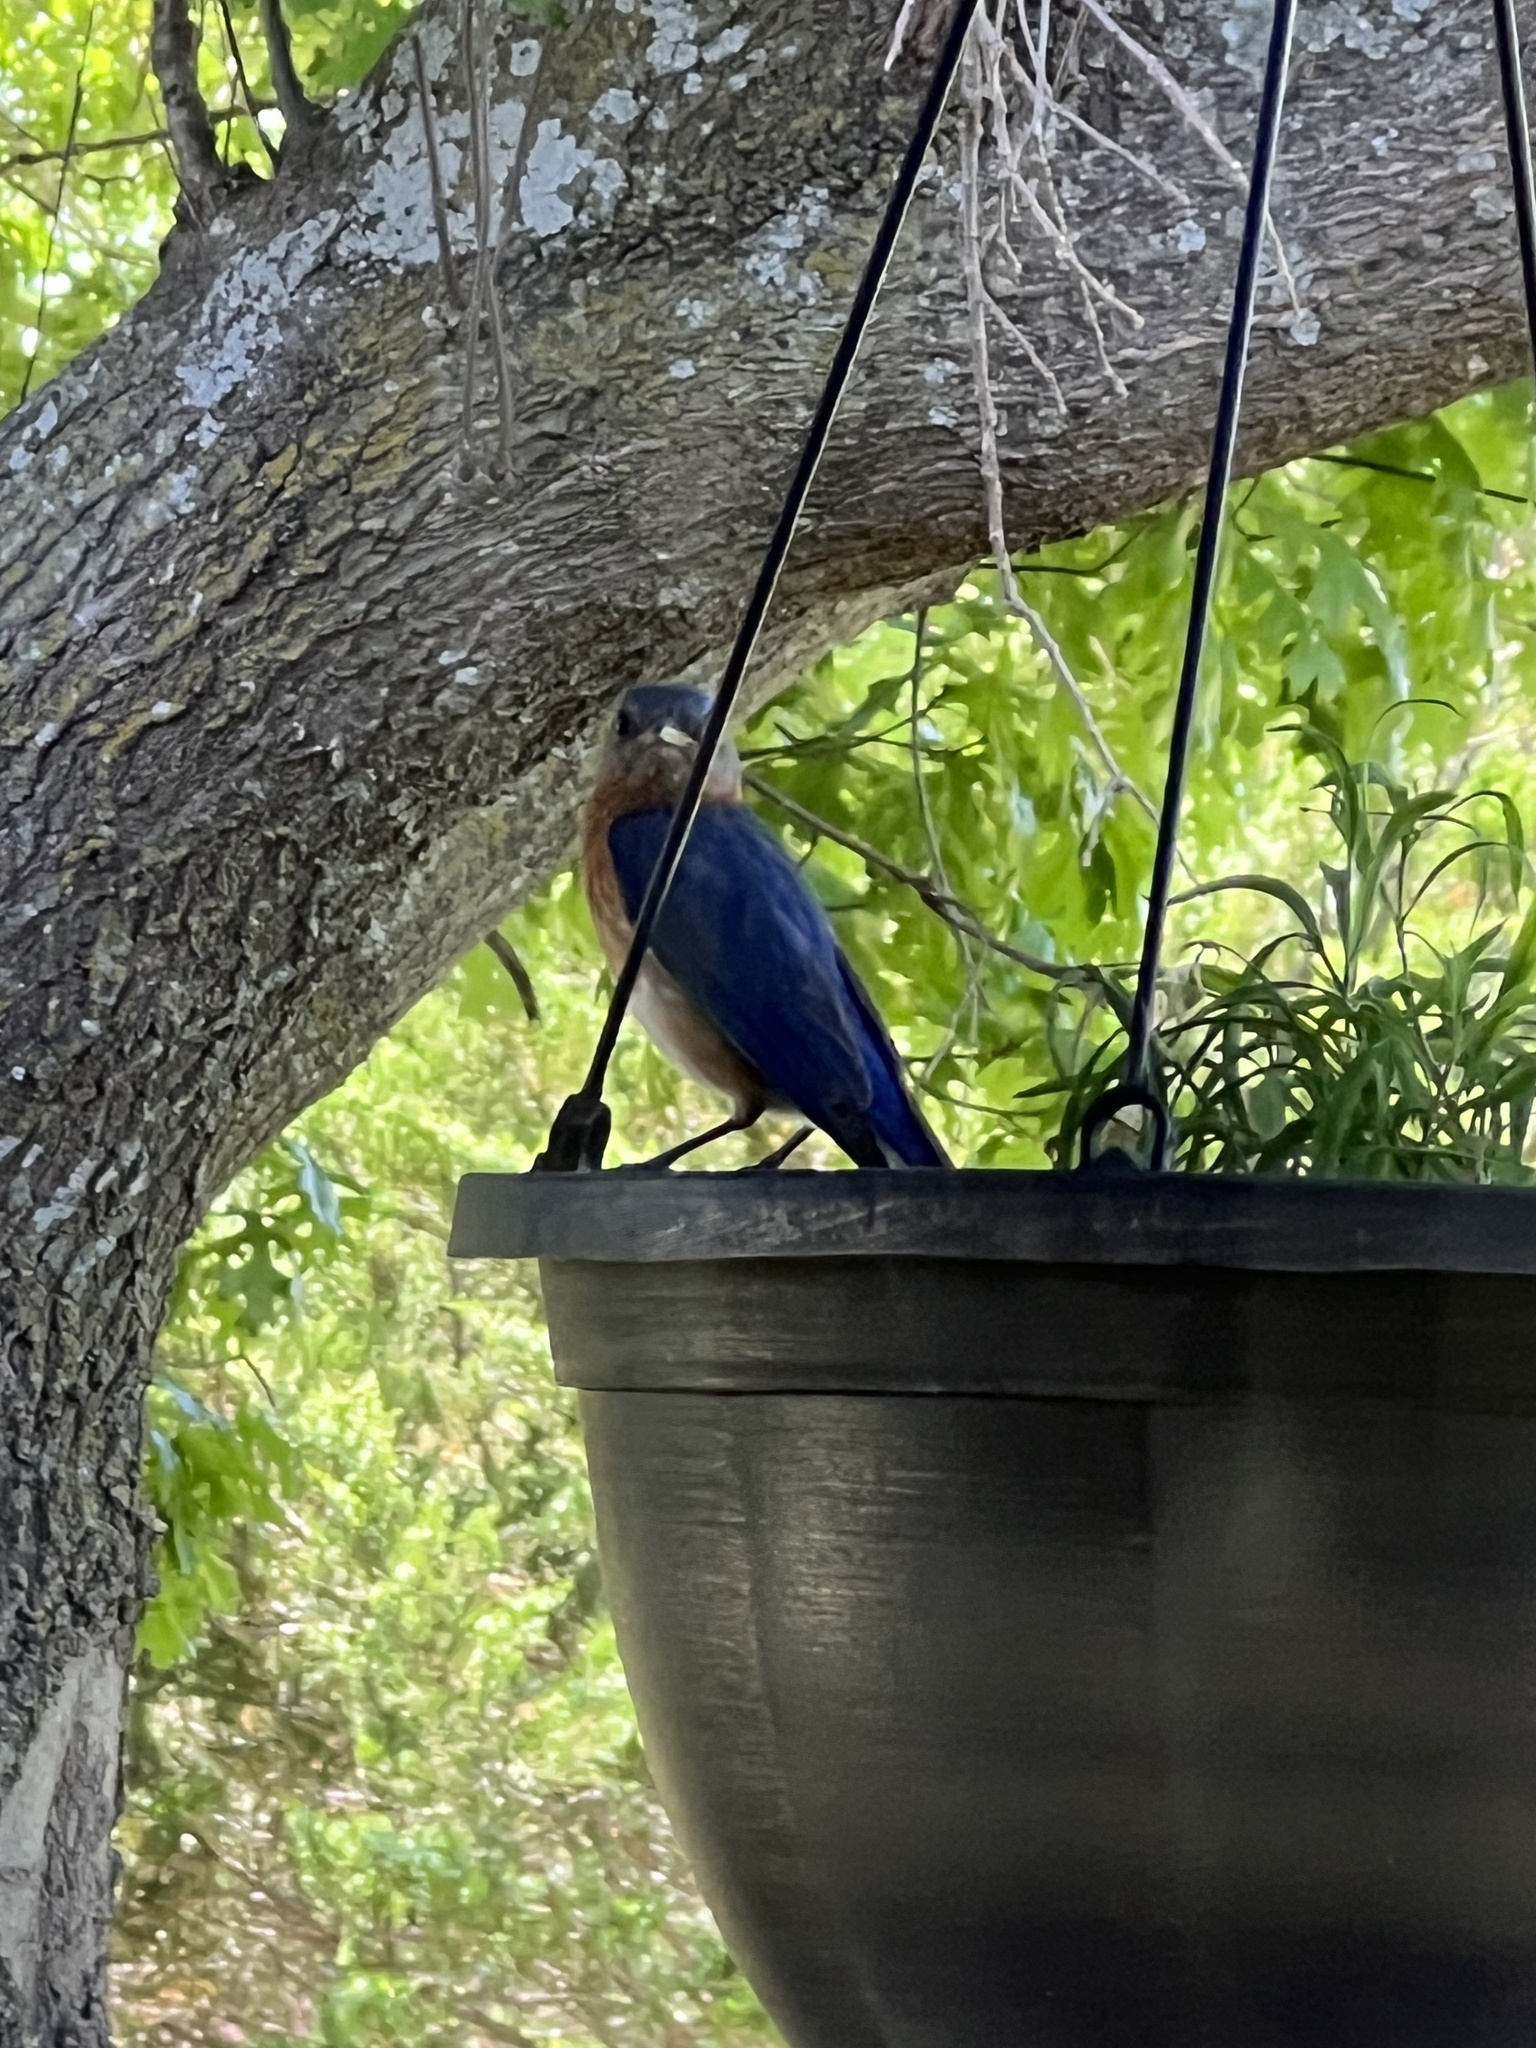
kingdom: Animalia
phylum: Chordata
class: Aves
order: Passeriformes
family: Turdidae
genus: Sialia
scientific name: Sialia sialis
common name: Eastern bluebird
